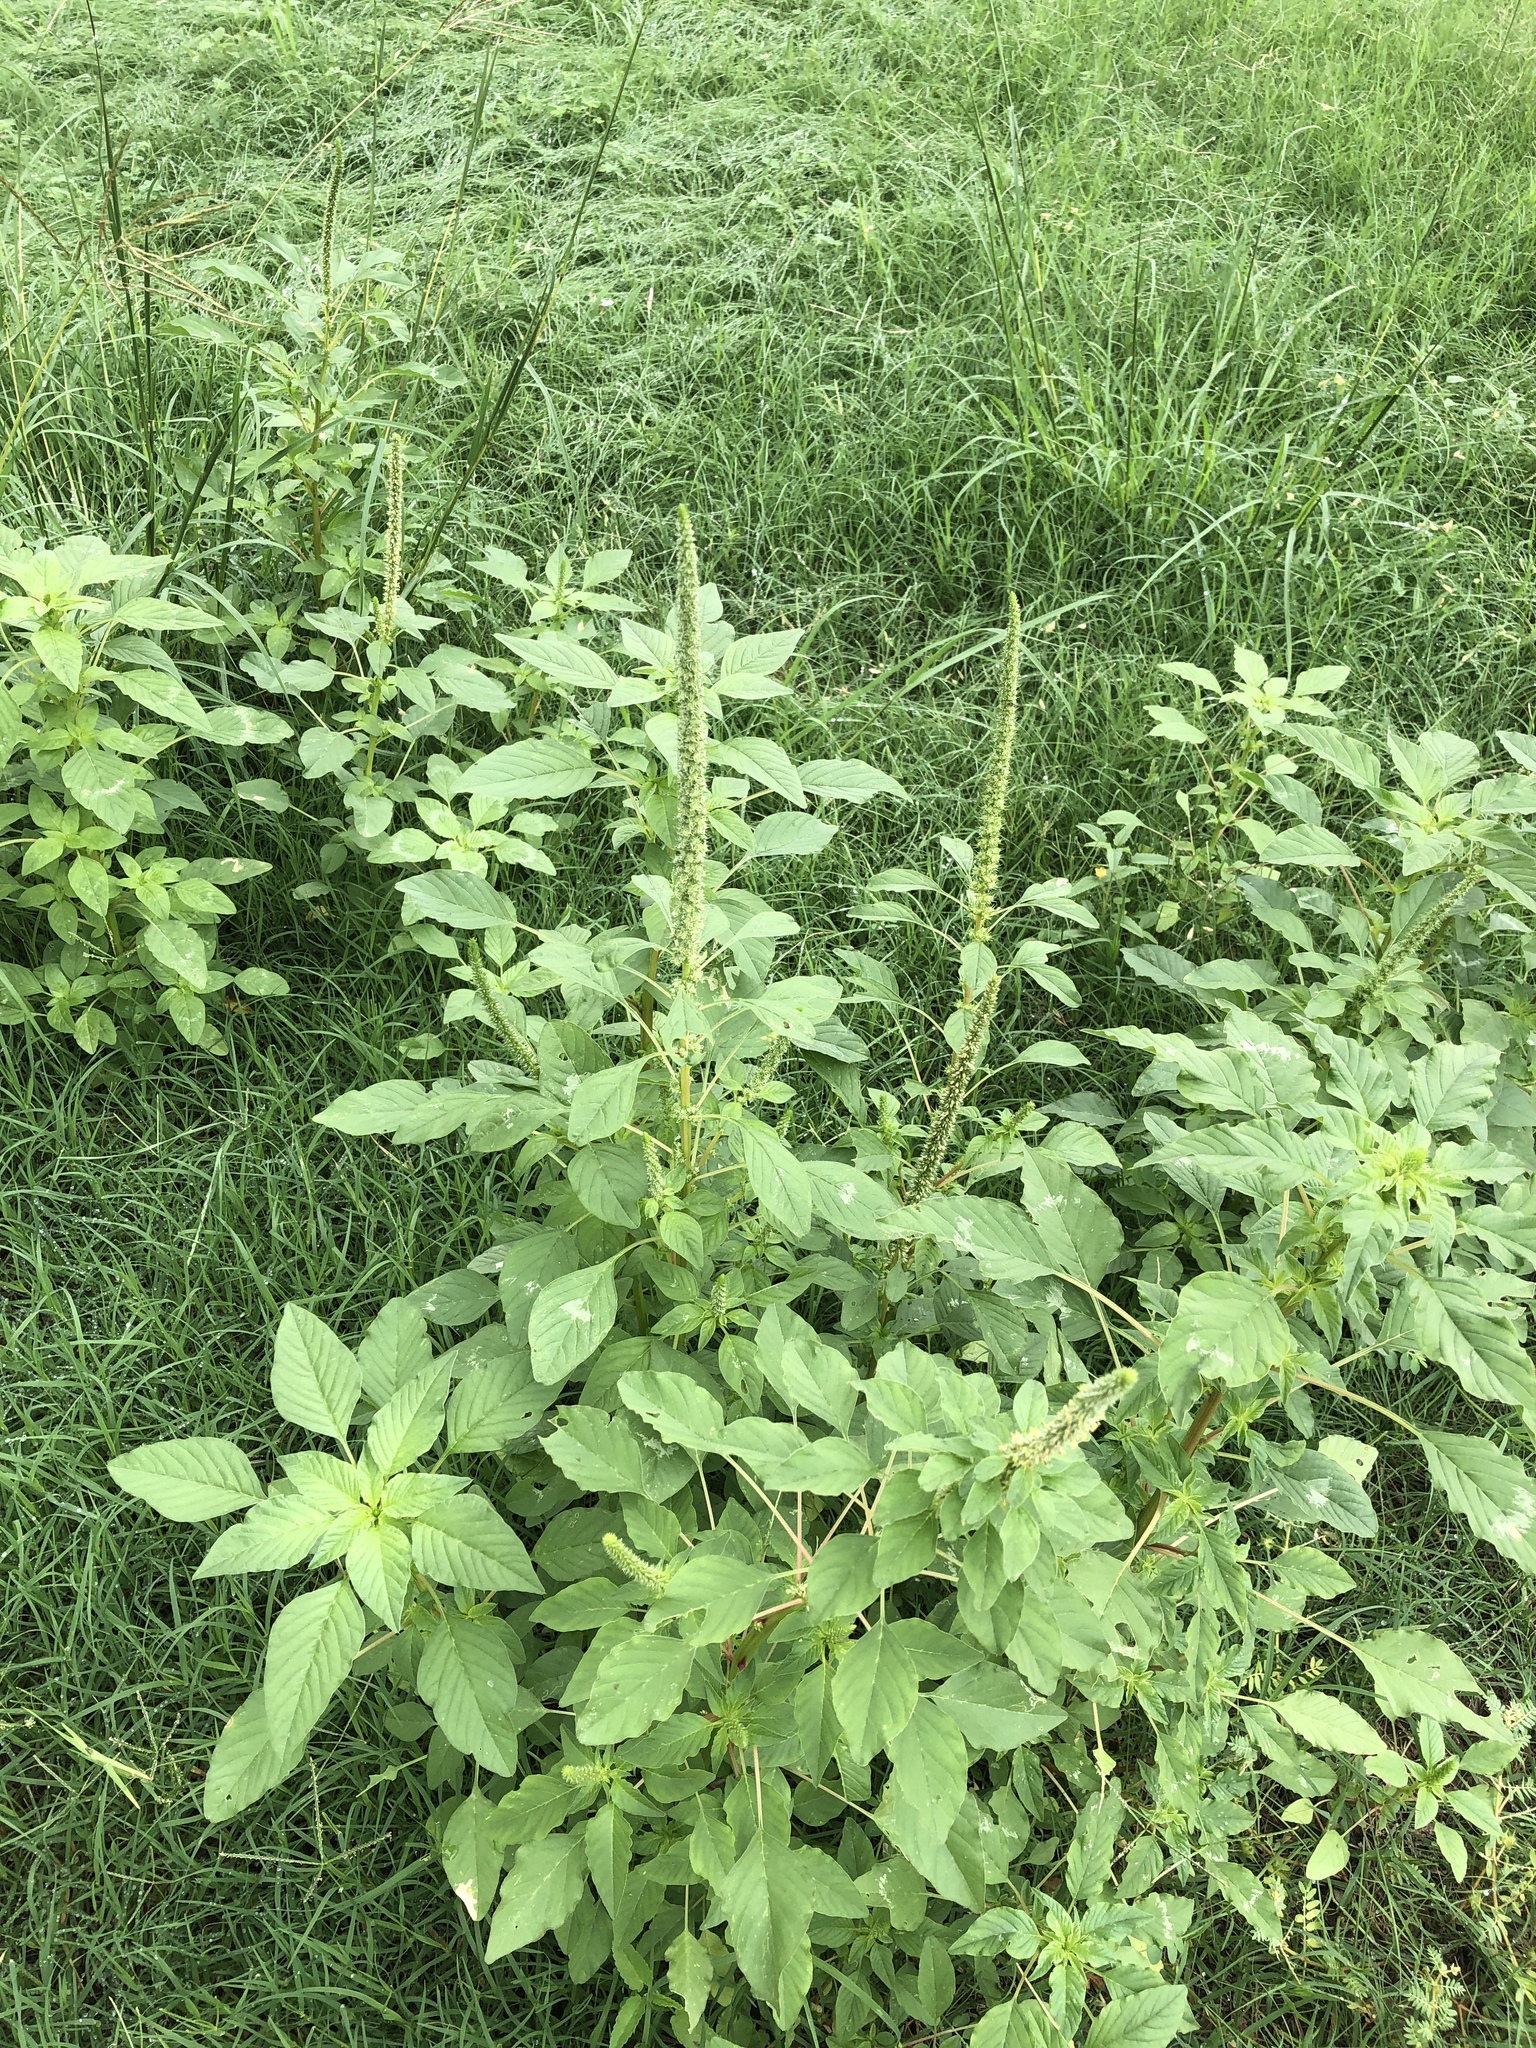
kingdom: Plantae
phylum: Tracheophyta
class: Magnoliopsida
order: Caryophyllales
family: Amaranthaceae
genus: Amaranthus
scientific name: Amaranthus palmeri
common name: Dioecious amaranth
